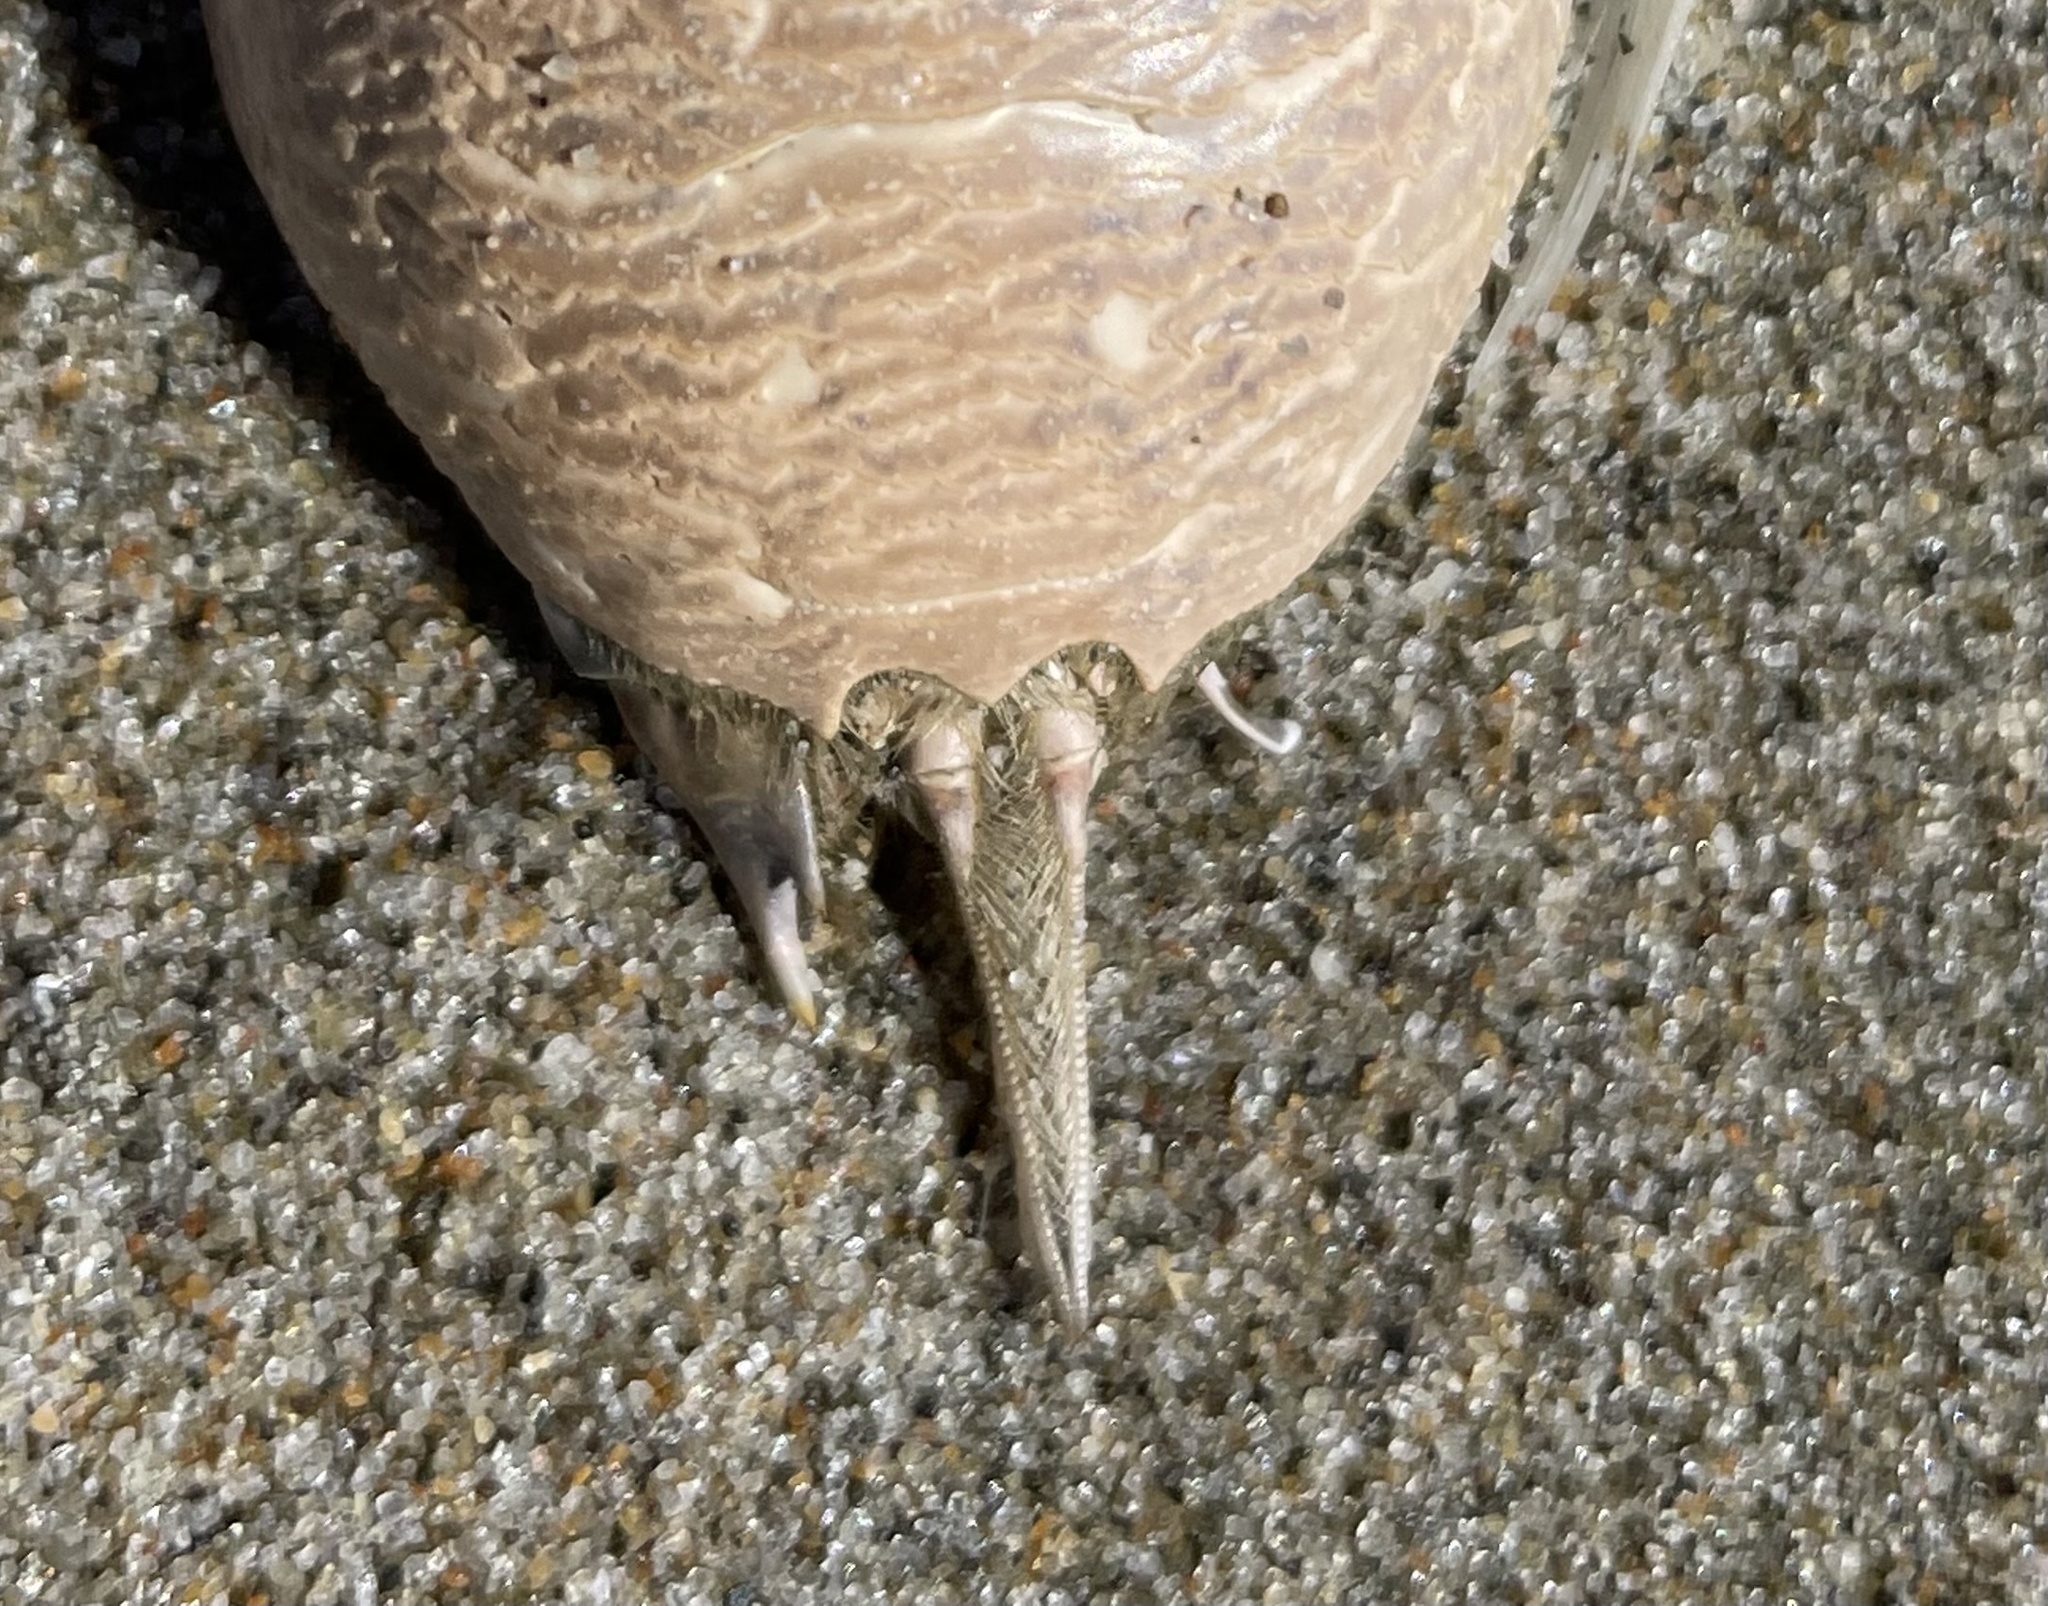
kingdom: Animalia
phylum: Arthropoda
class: Malacostraca
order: Decapoda
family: Hippidae
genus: Emerita
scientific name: Emerita analoga
